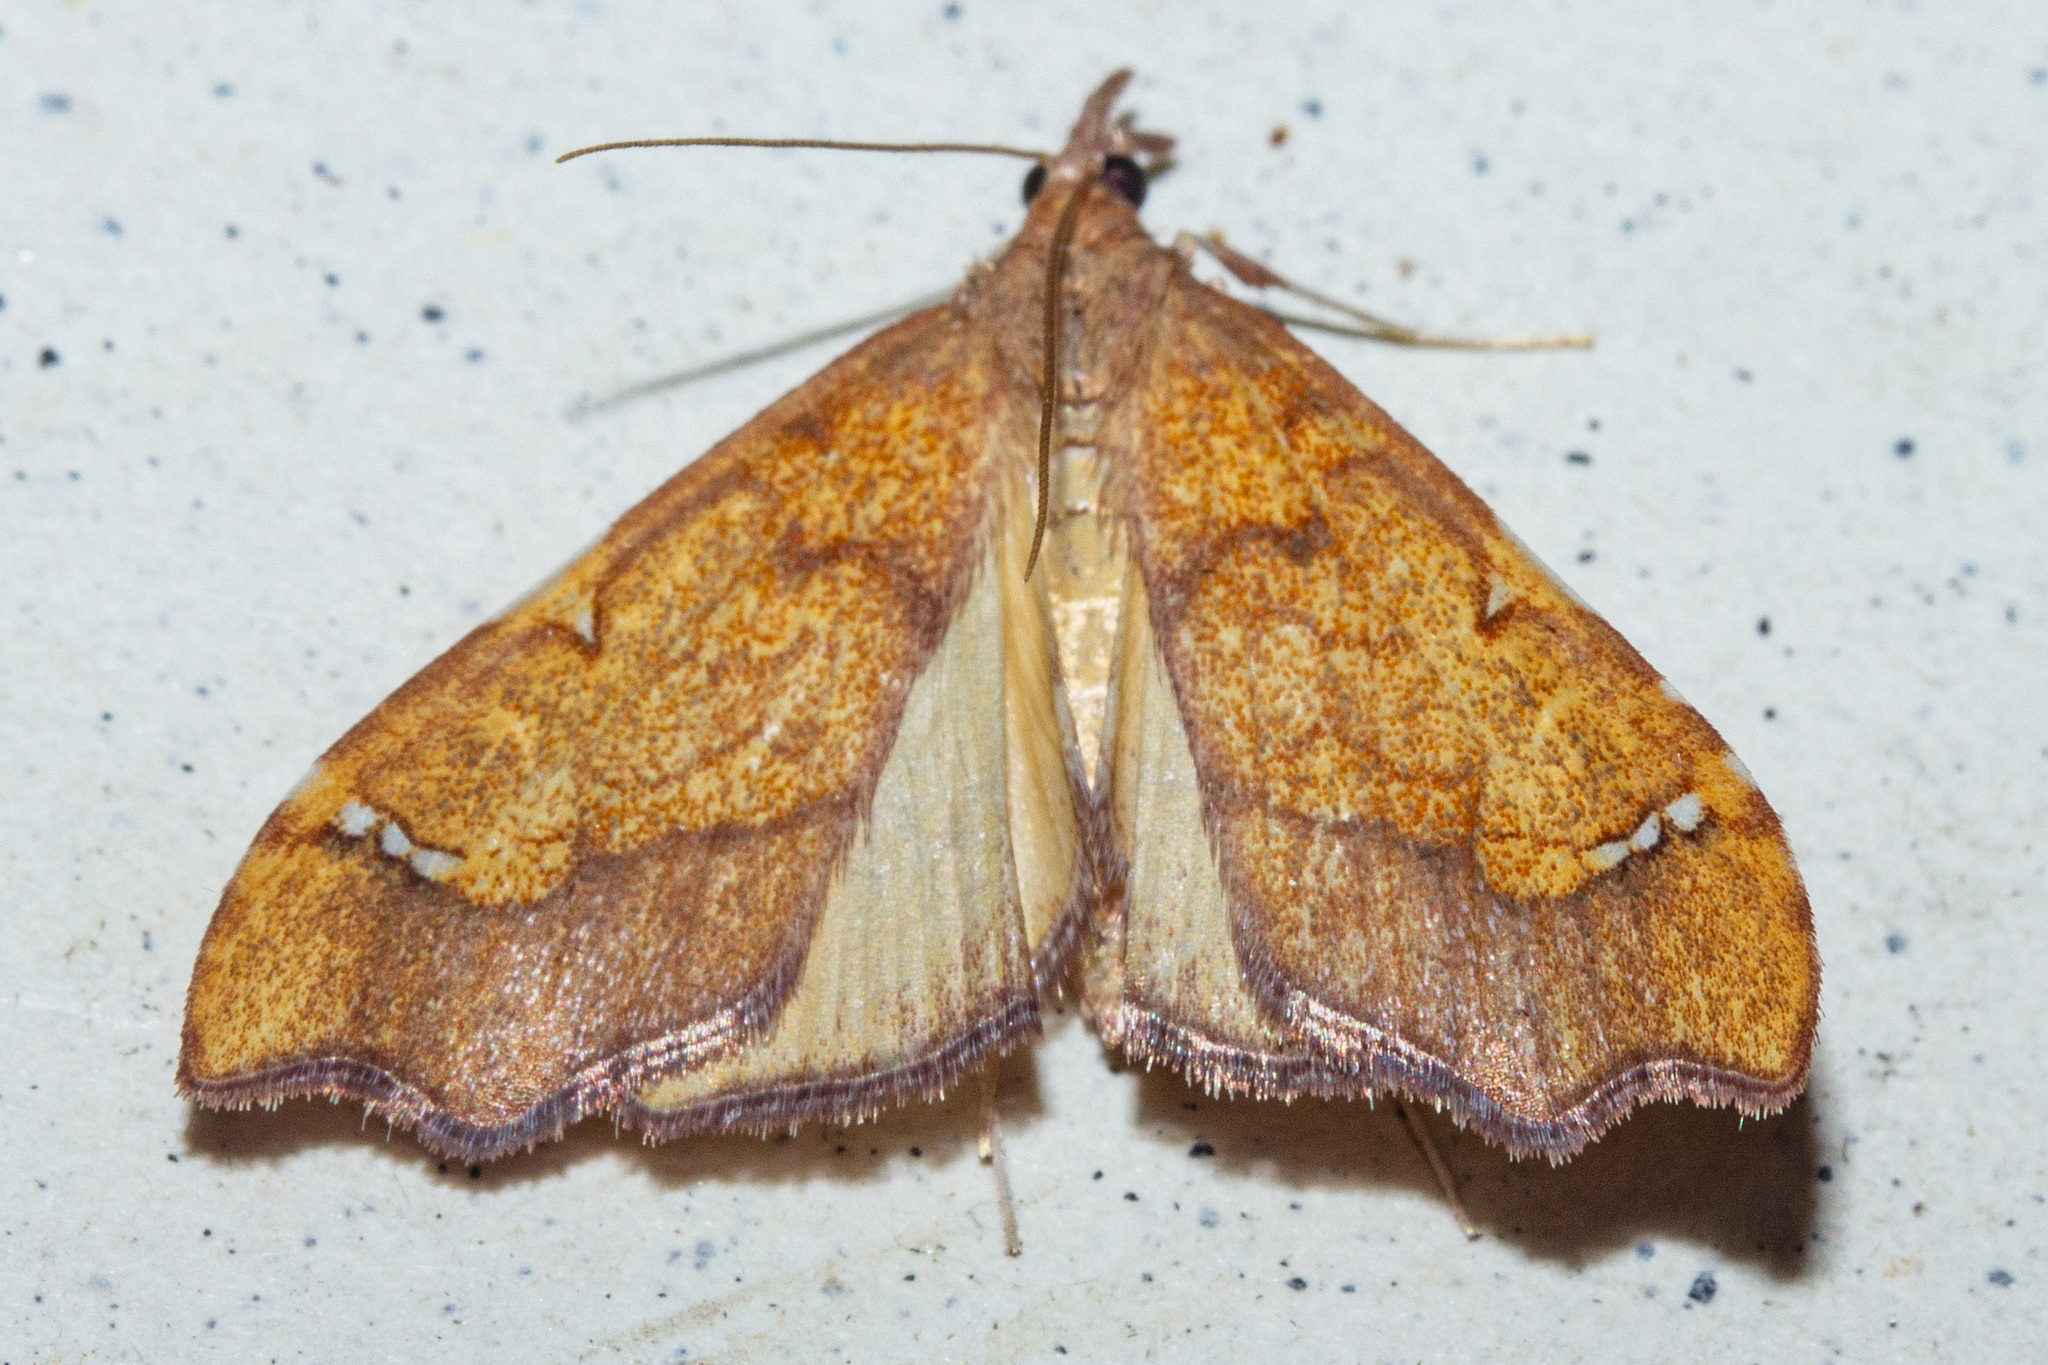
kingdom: Animalia
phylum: Arthropoda
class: Insecta
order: Lepidoptera
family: Crambidae
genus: Deana
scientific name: Deana hybreasalis
